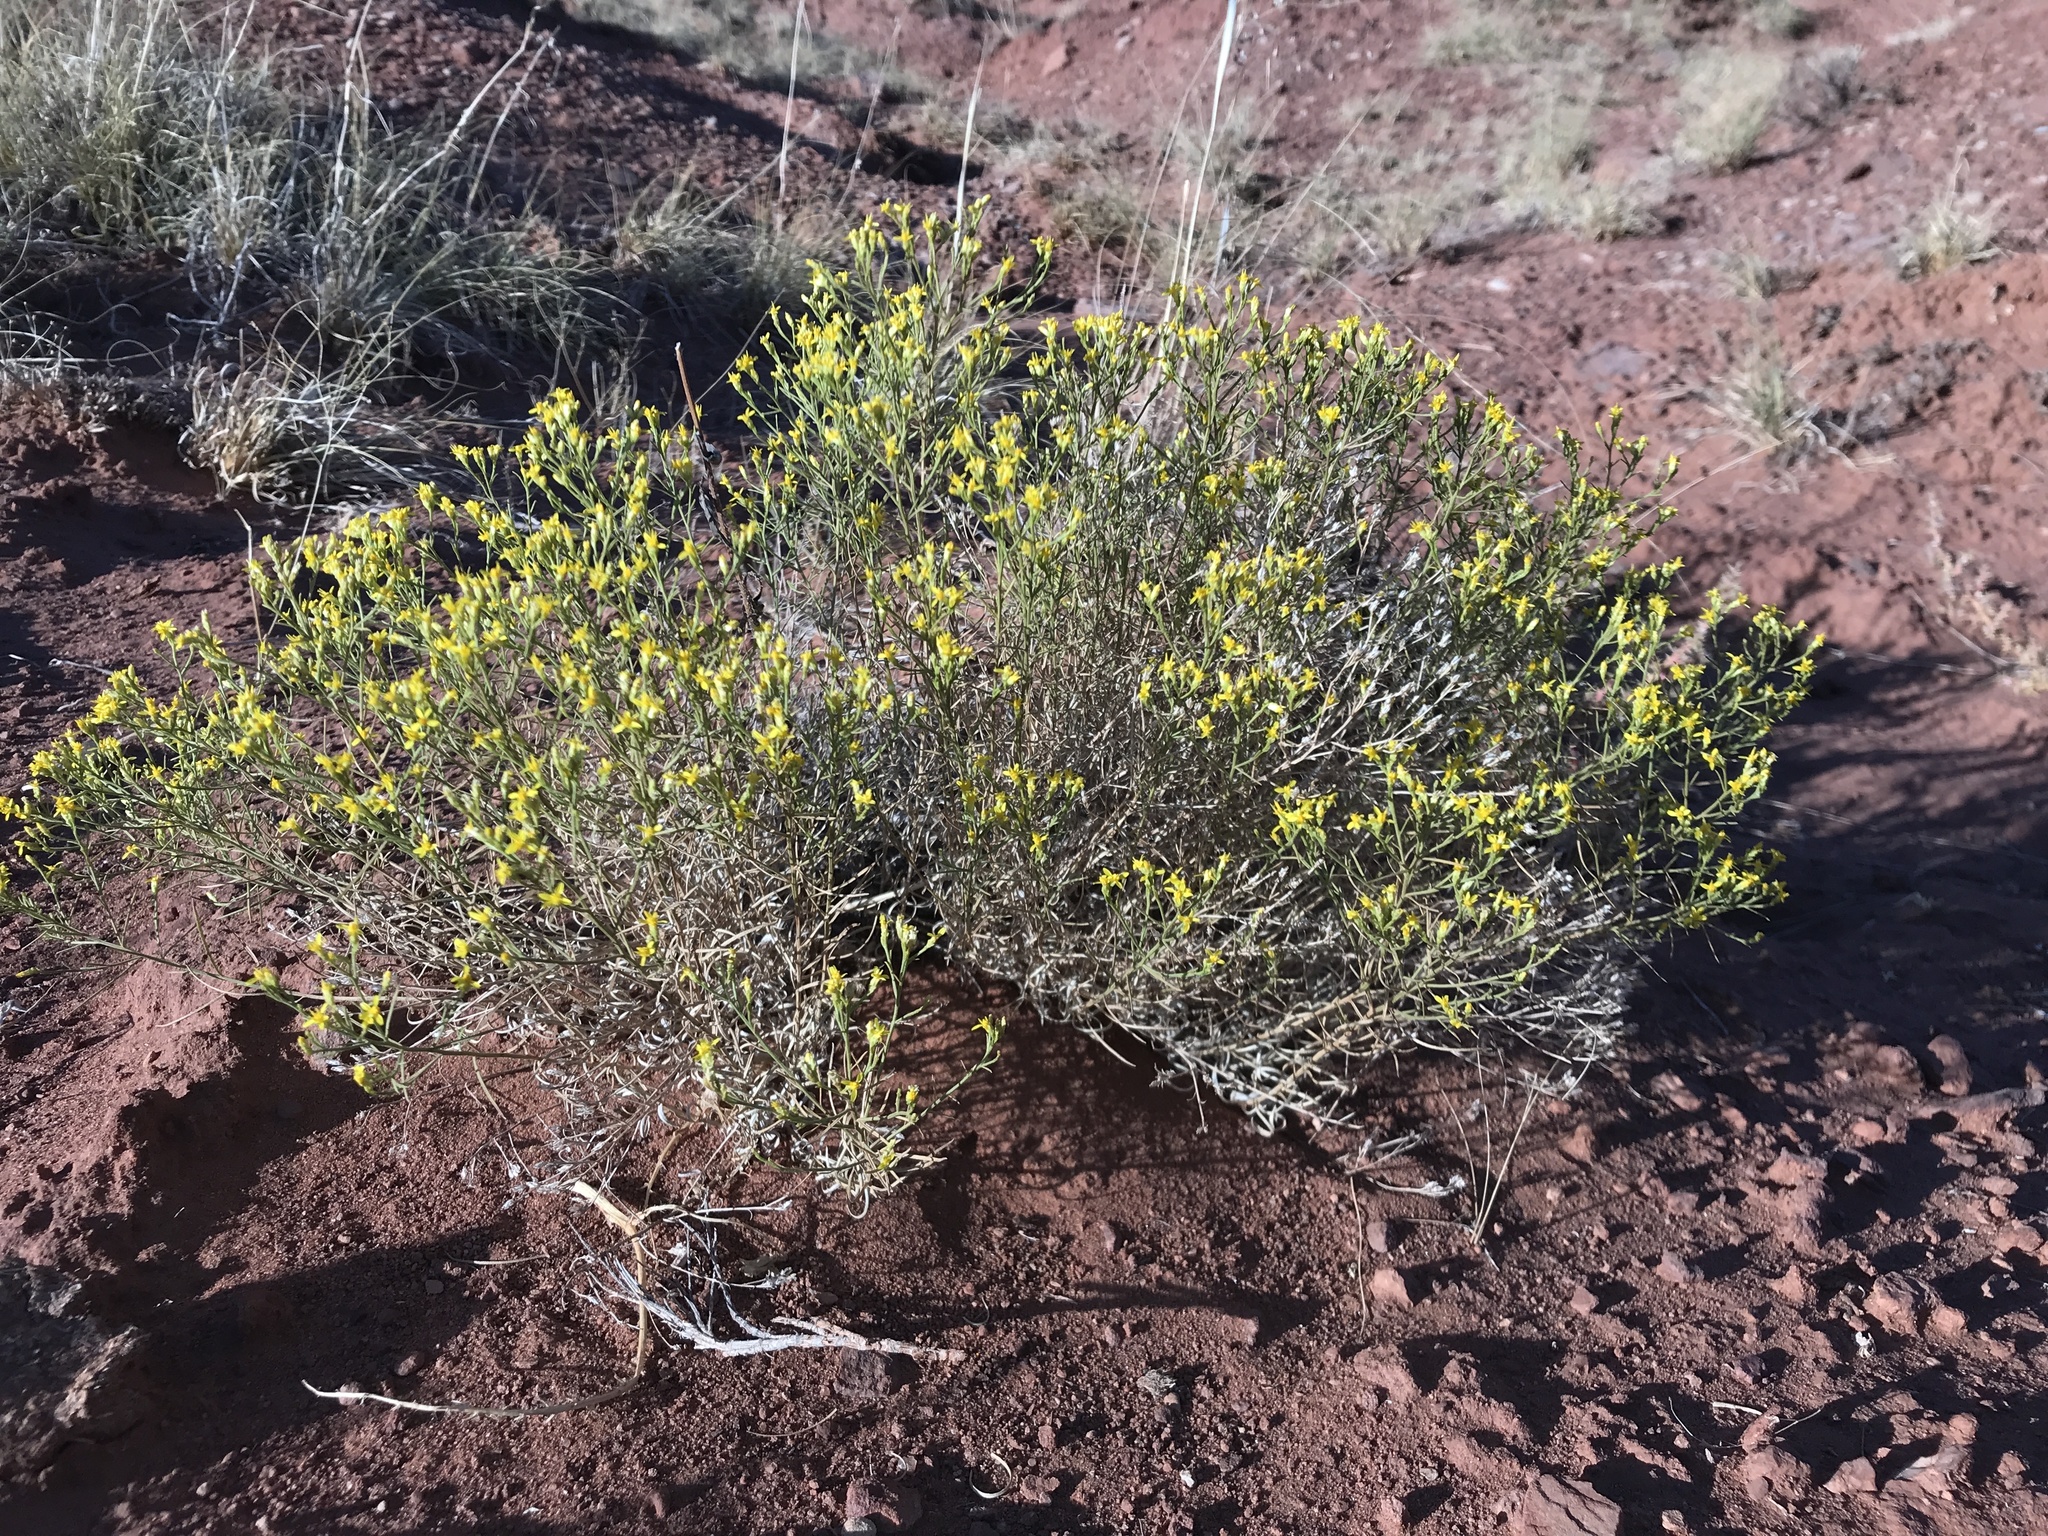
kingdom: Plantae
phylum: Tracheophyta
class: Magnoliopsida
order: Asterales
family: Asteraceae
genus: Gutierrezia
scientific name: Gutierrezia sarothrae
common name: Broom snakeweed
